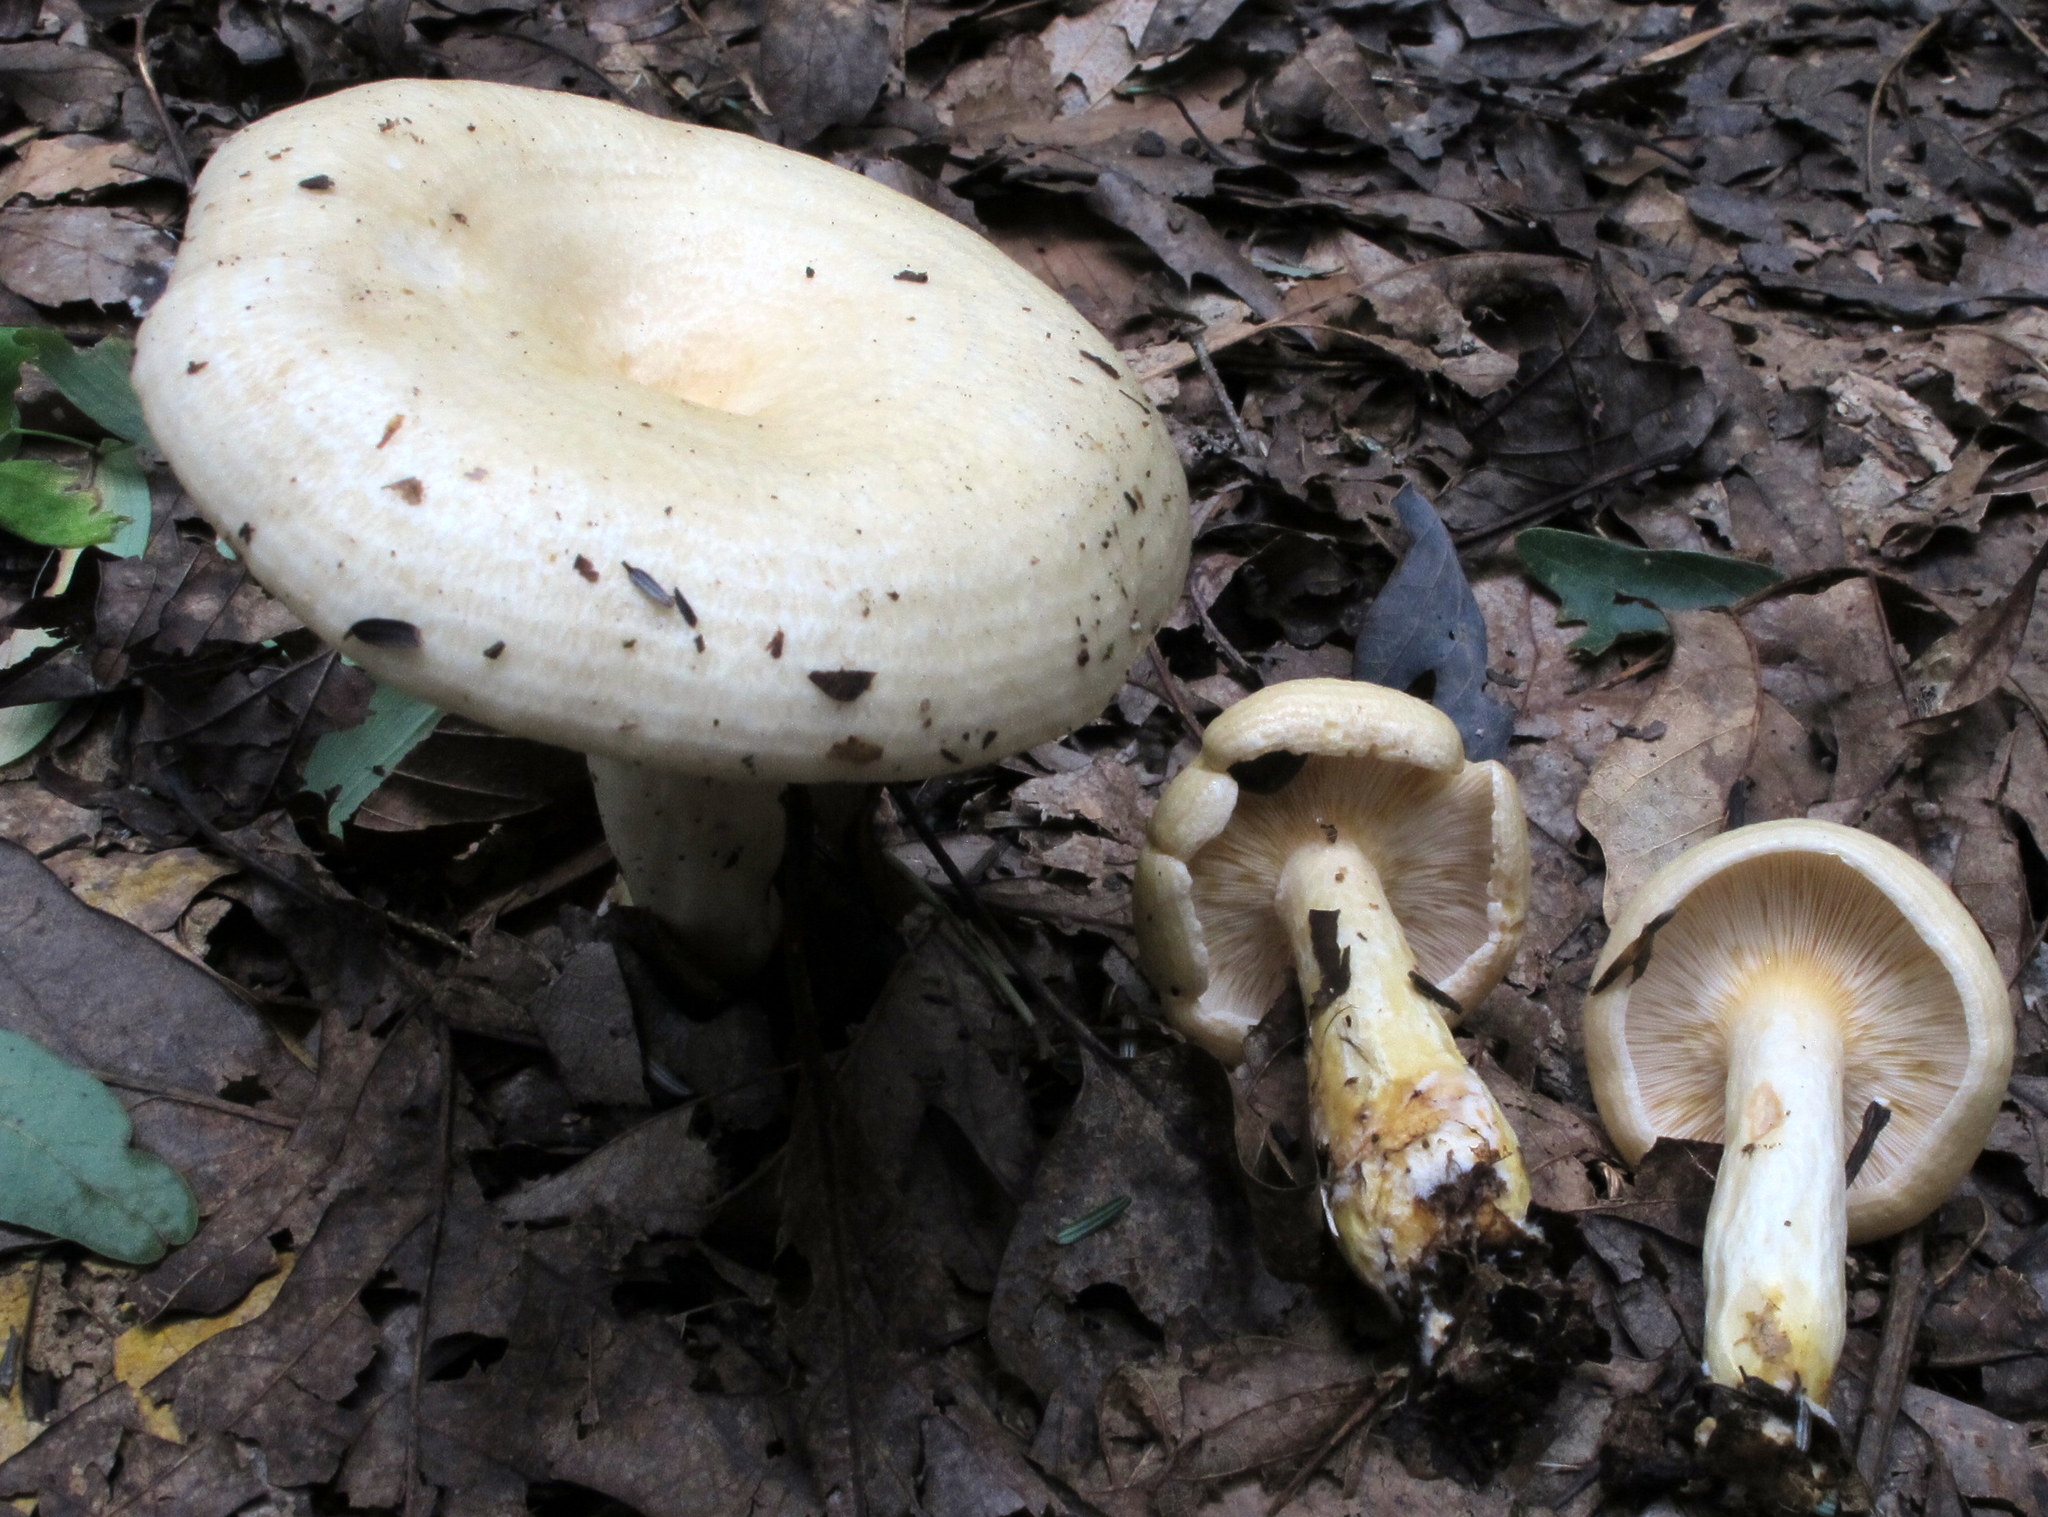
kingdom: Fungi
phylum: Basidiomycota
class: Agaricomycetes
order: Russulales
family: Russulaceae
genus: Lactarius
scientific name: Lactarius maculatipes
